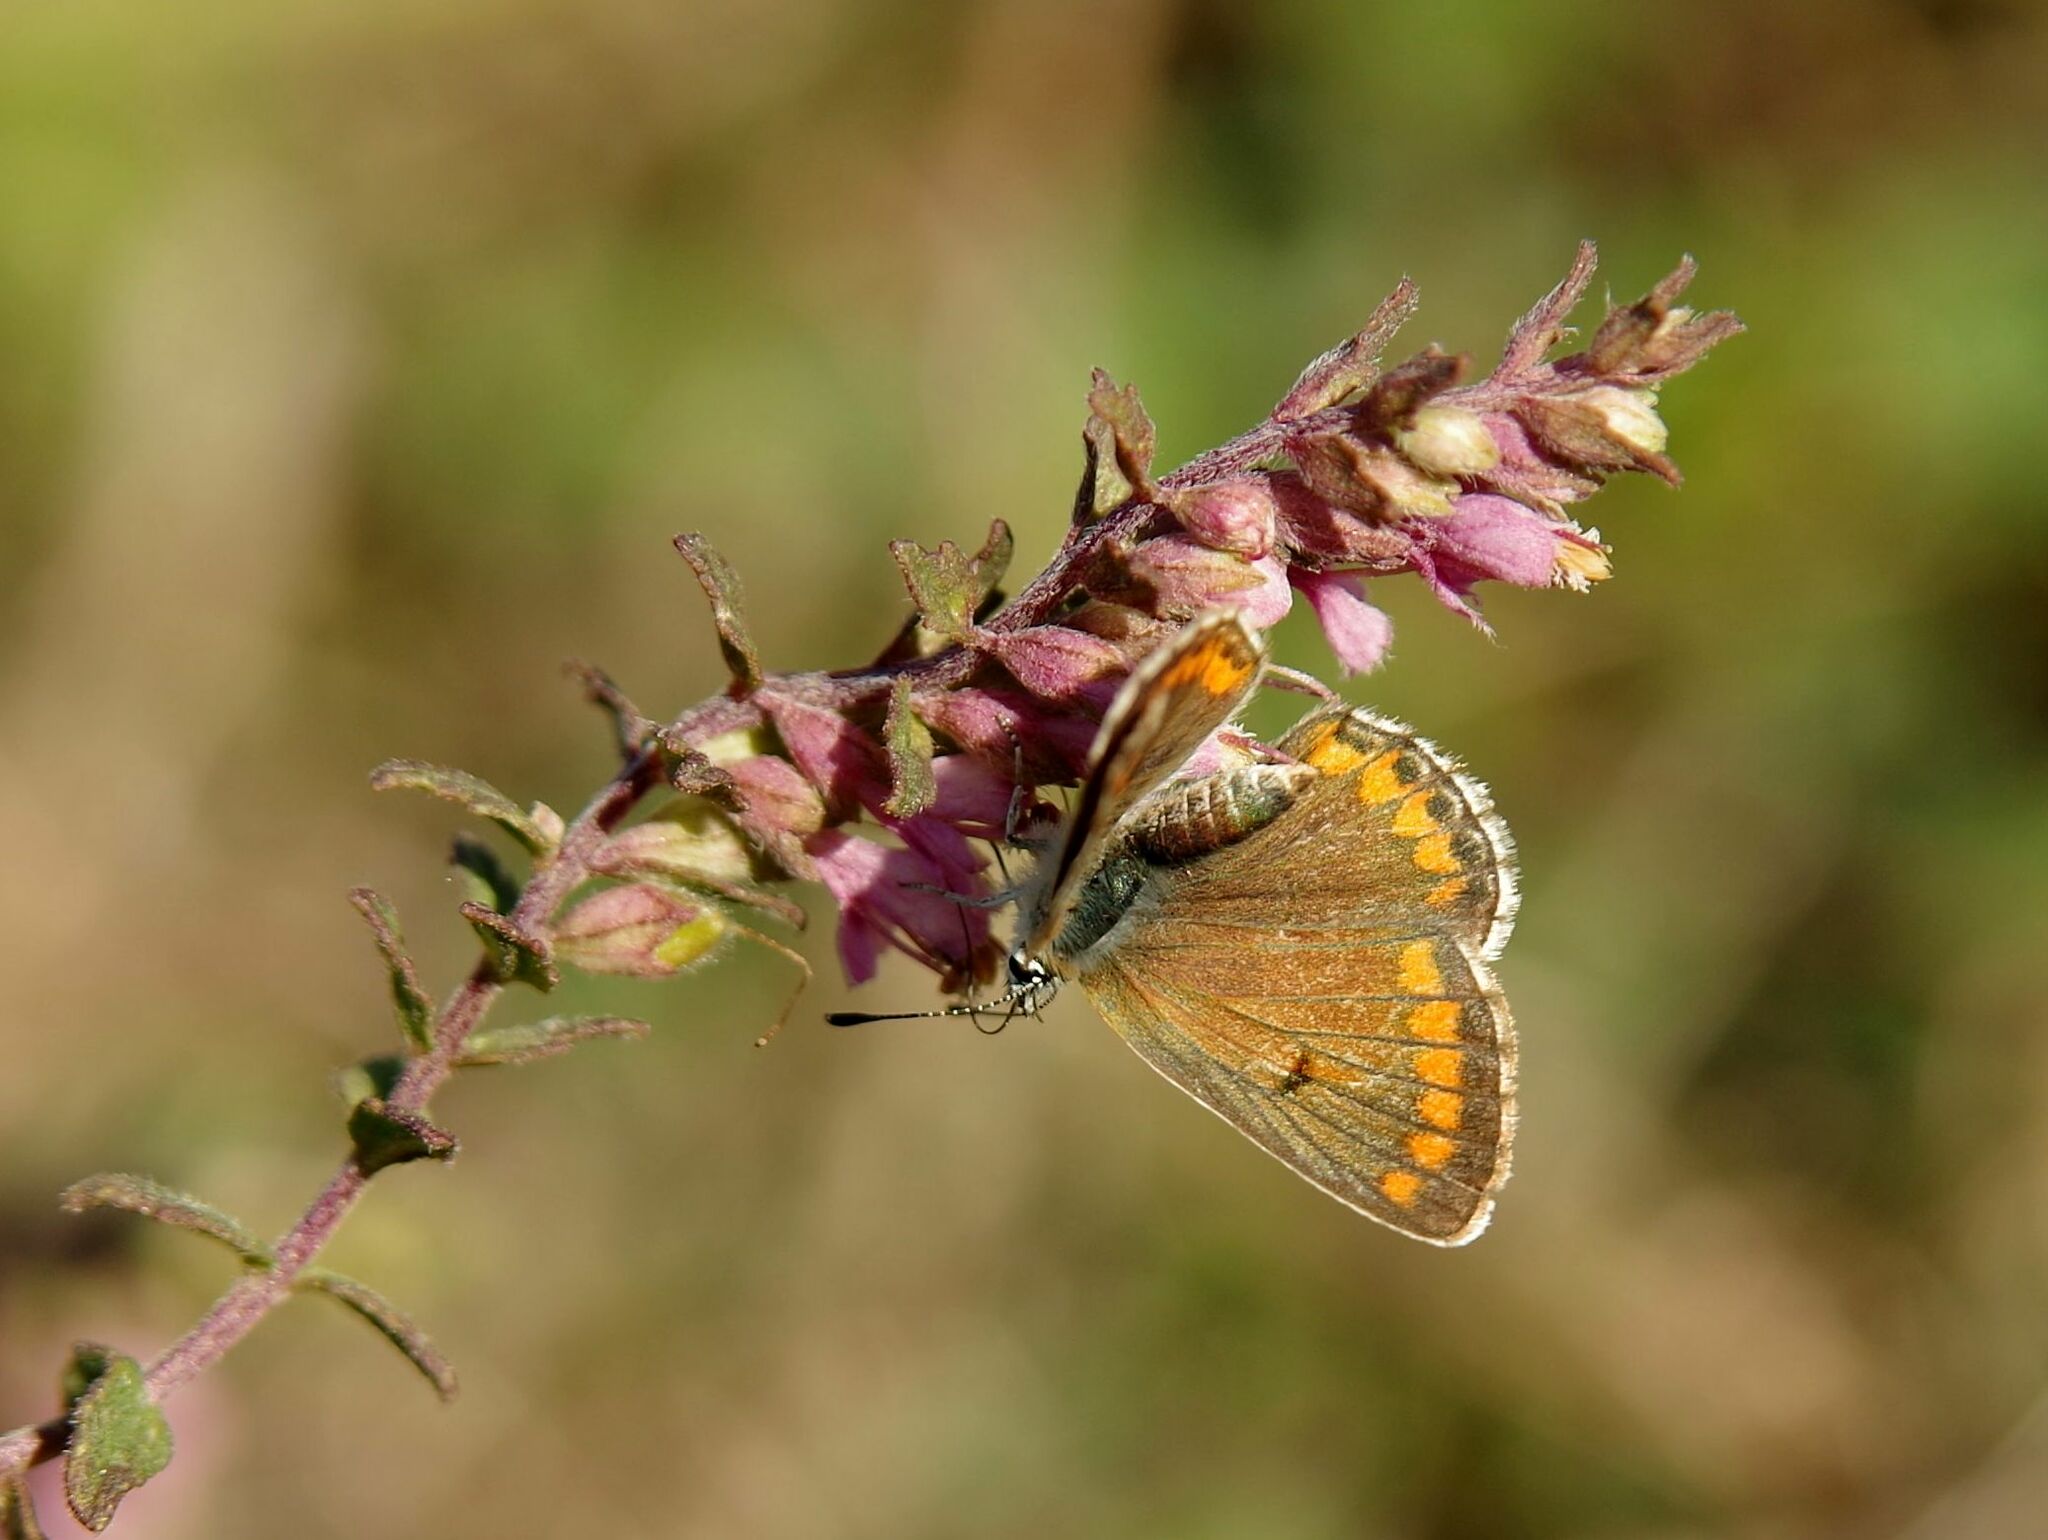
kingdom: Animalia
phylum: Arthropoda
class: Insecta
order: Lepidoptera
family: Lycaenidae
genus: Aricia
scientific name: Aricia agestis
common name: Brown argus
